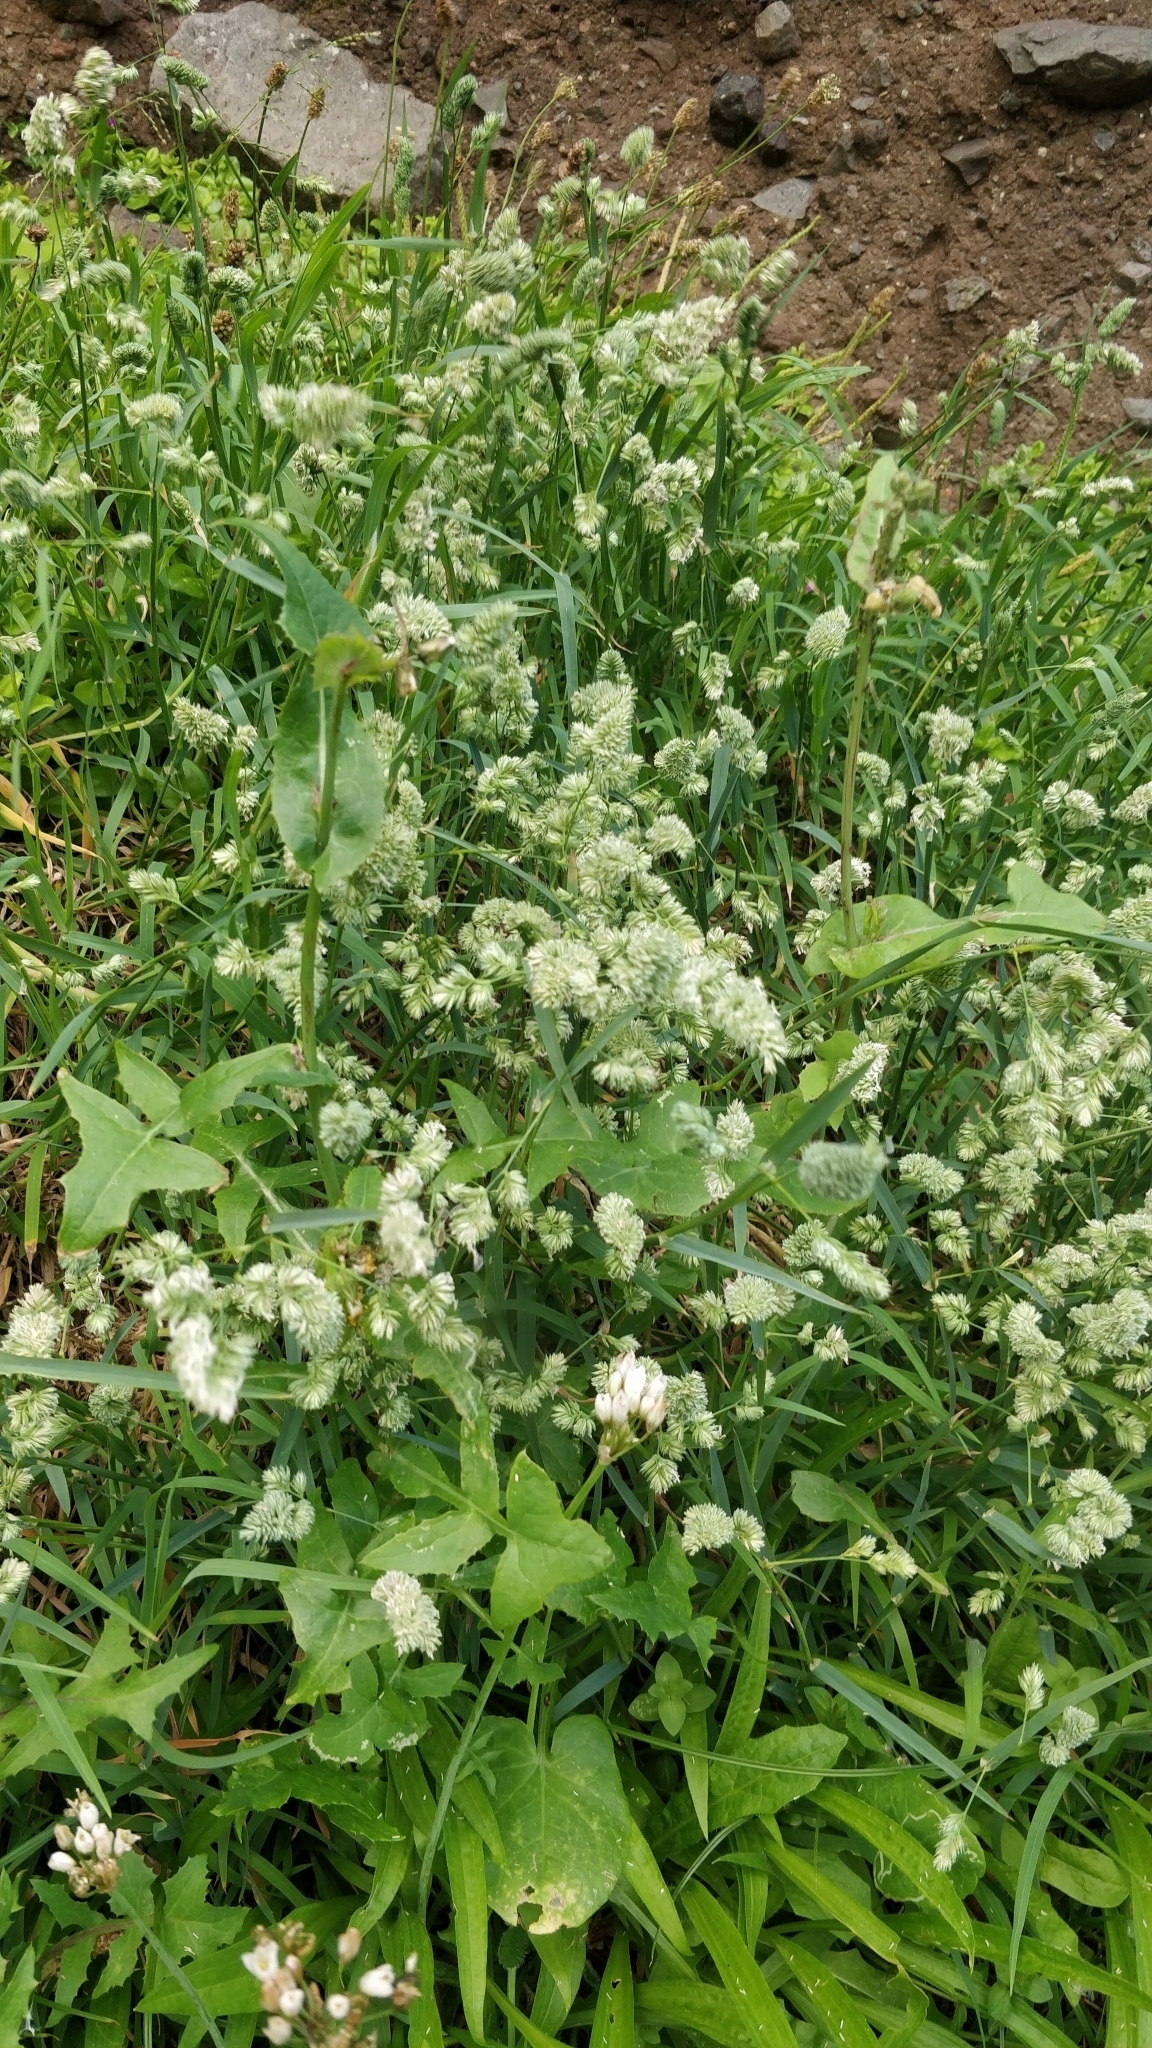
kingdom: Plantae
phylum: Tracheophyta
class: Liliopsida
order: Poales
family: Poaceae
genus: Dactylis
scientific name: Dactylis glomerata
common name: Orchardgrass
